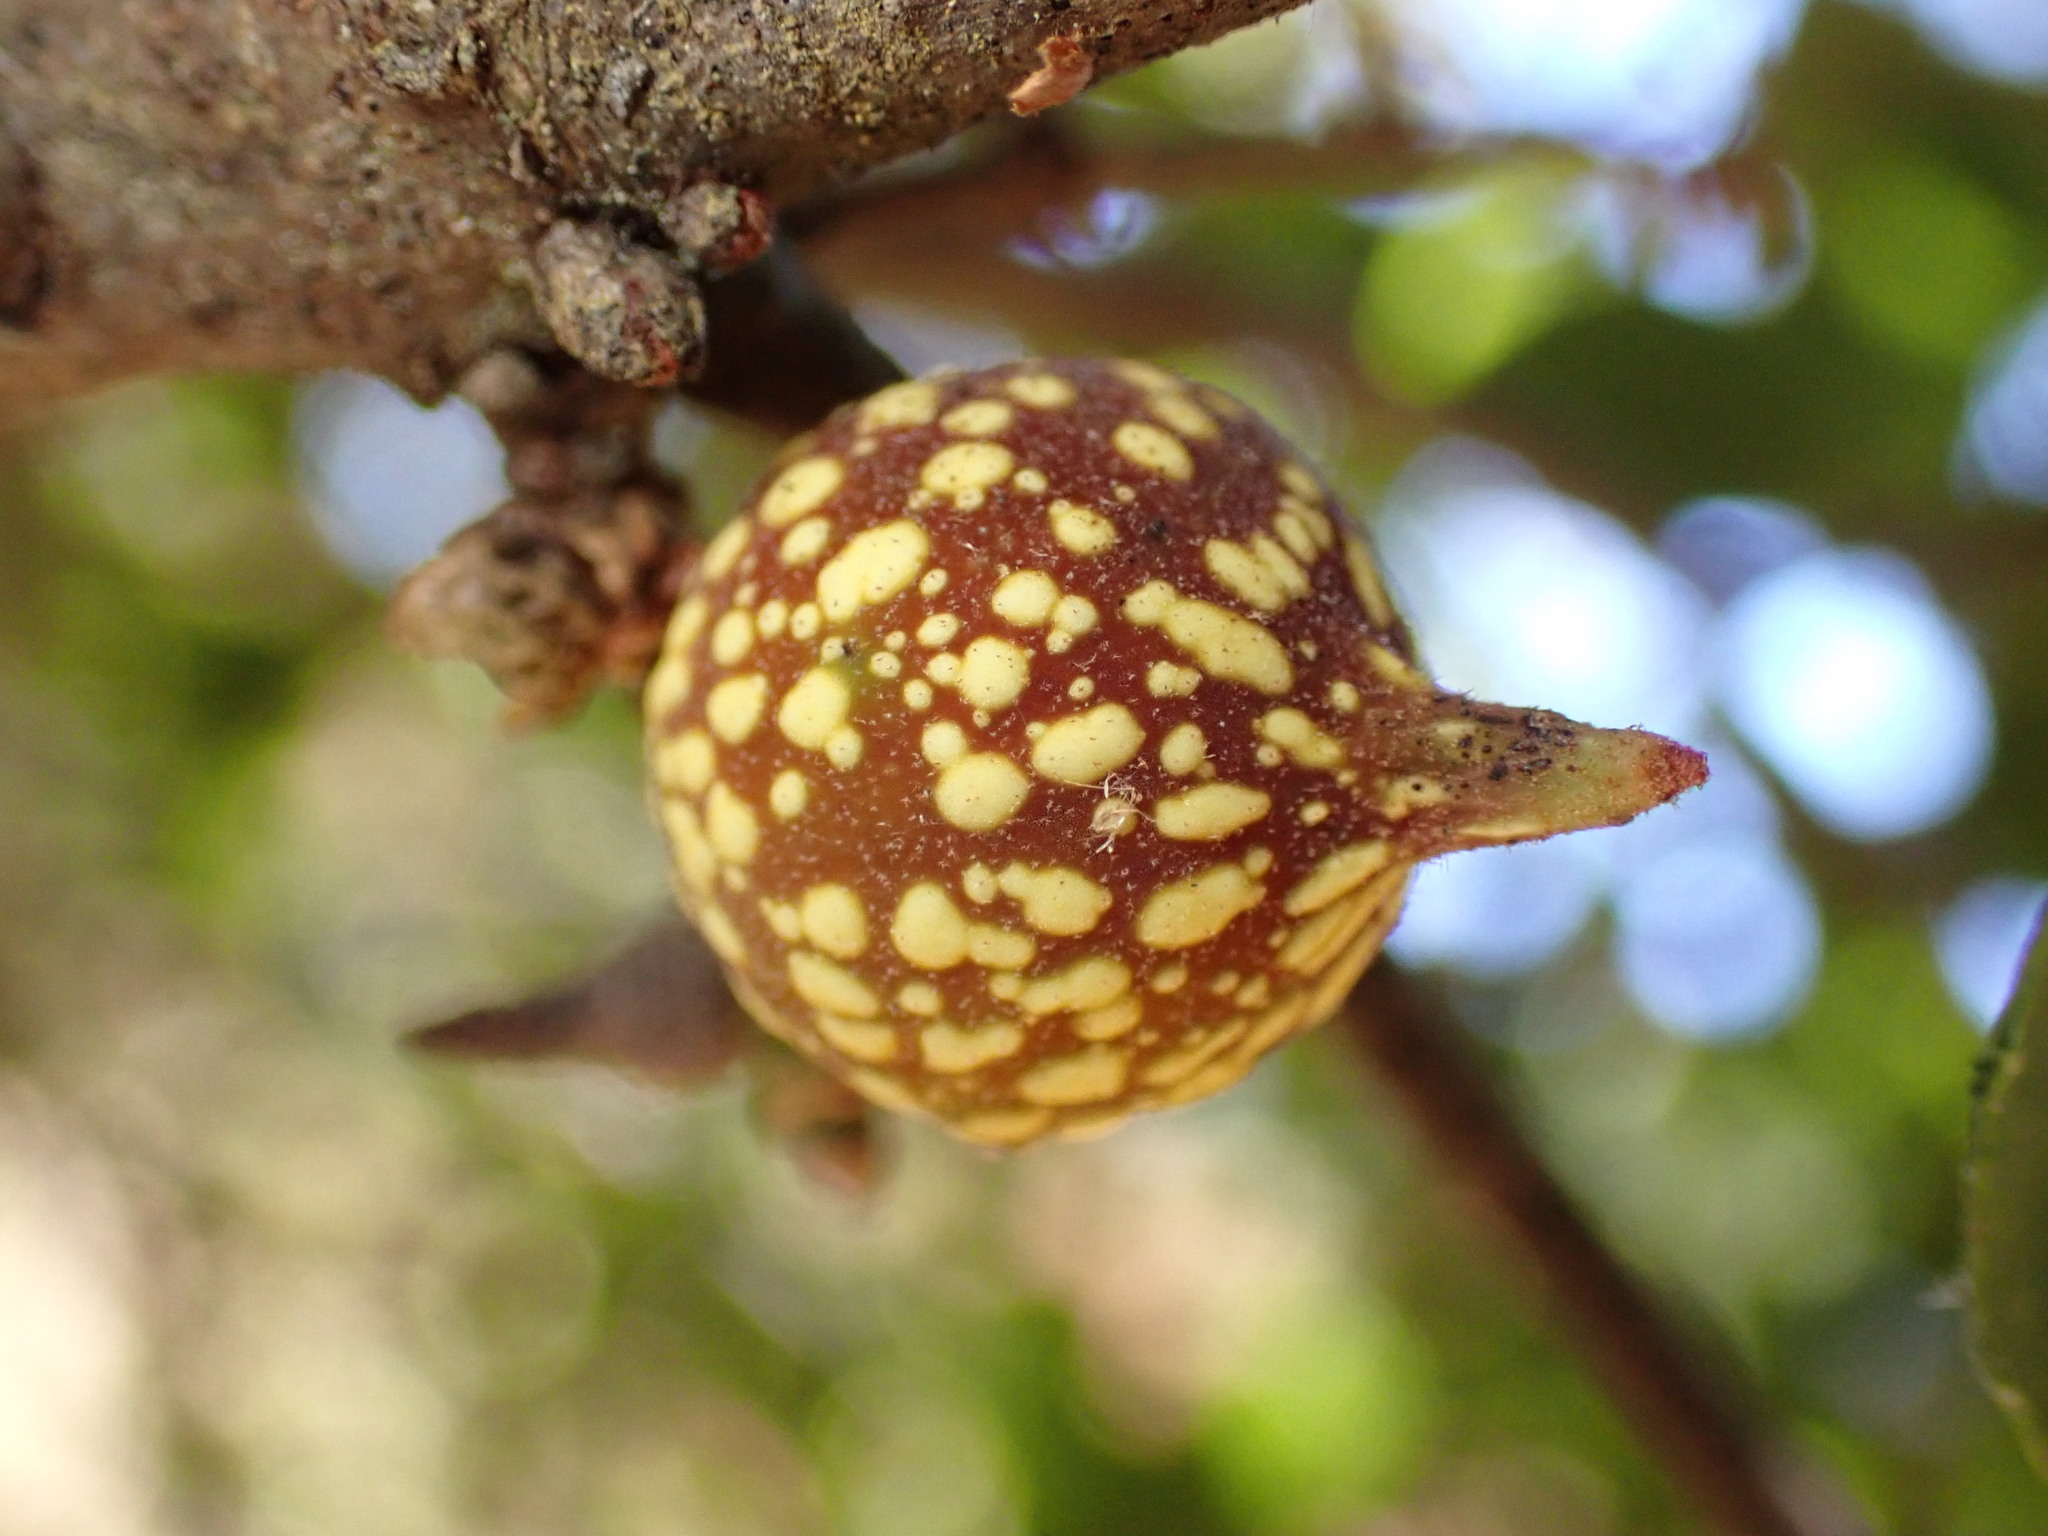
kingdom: Animalia
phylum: Arthropoda
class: Insecta
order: Hymenoptera
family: Cynipidae
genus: Burnettweldia
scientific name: Burnettweldia
